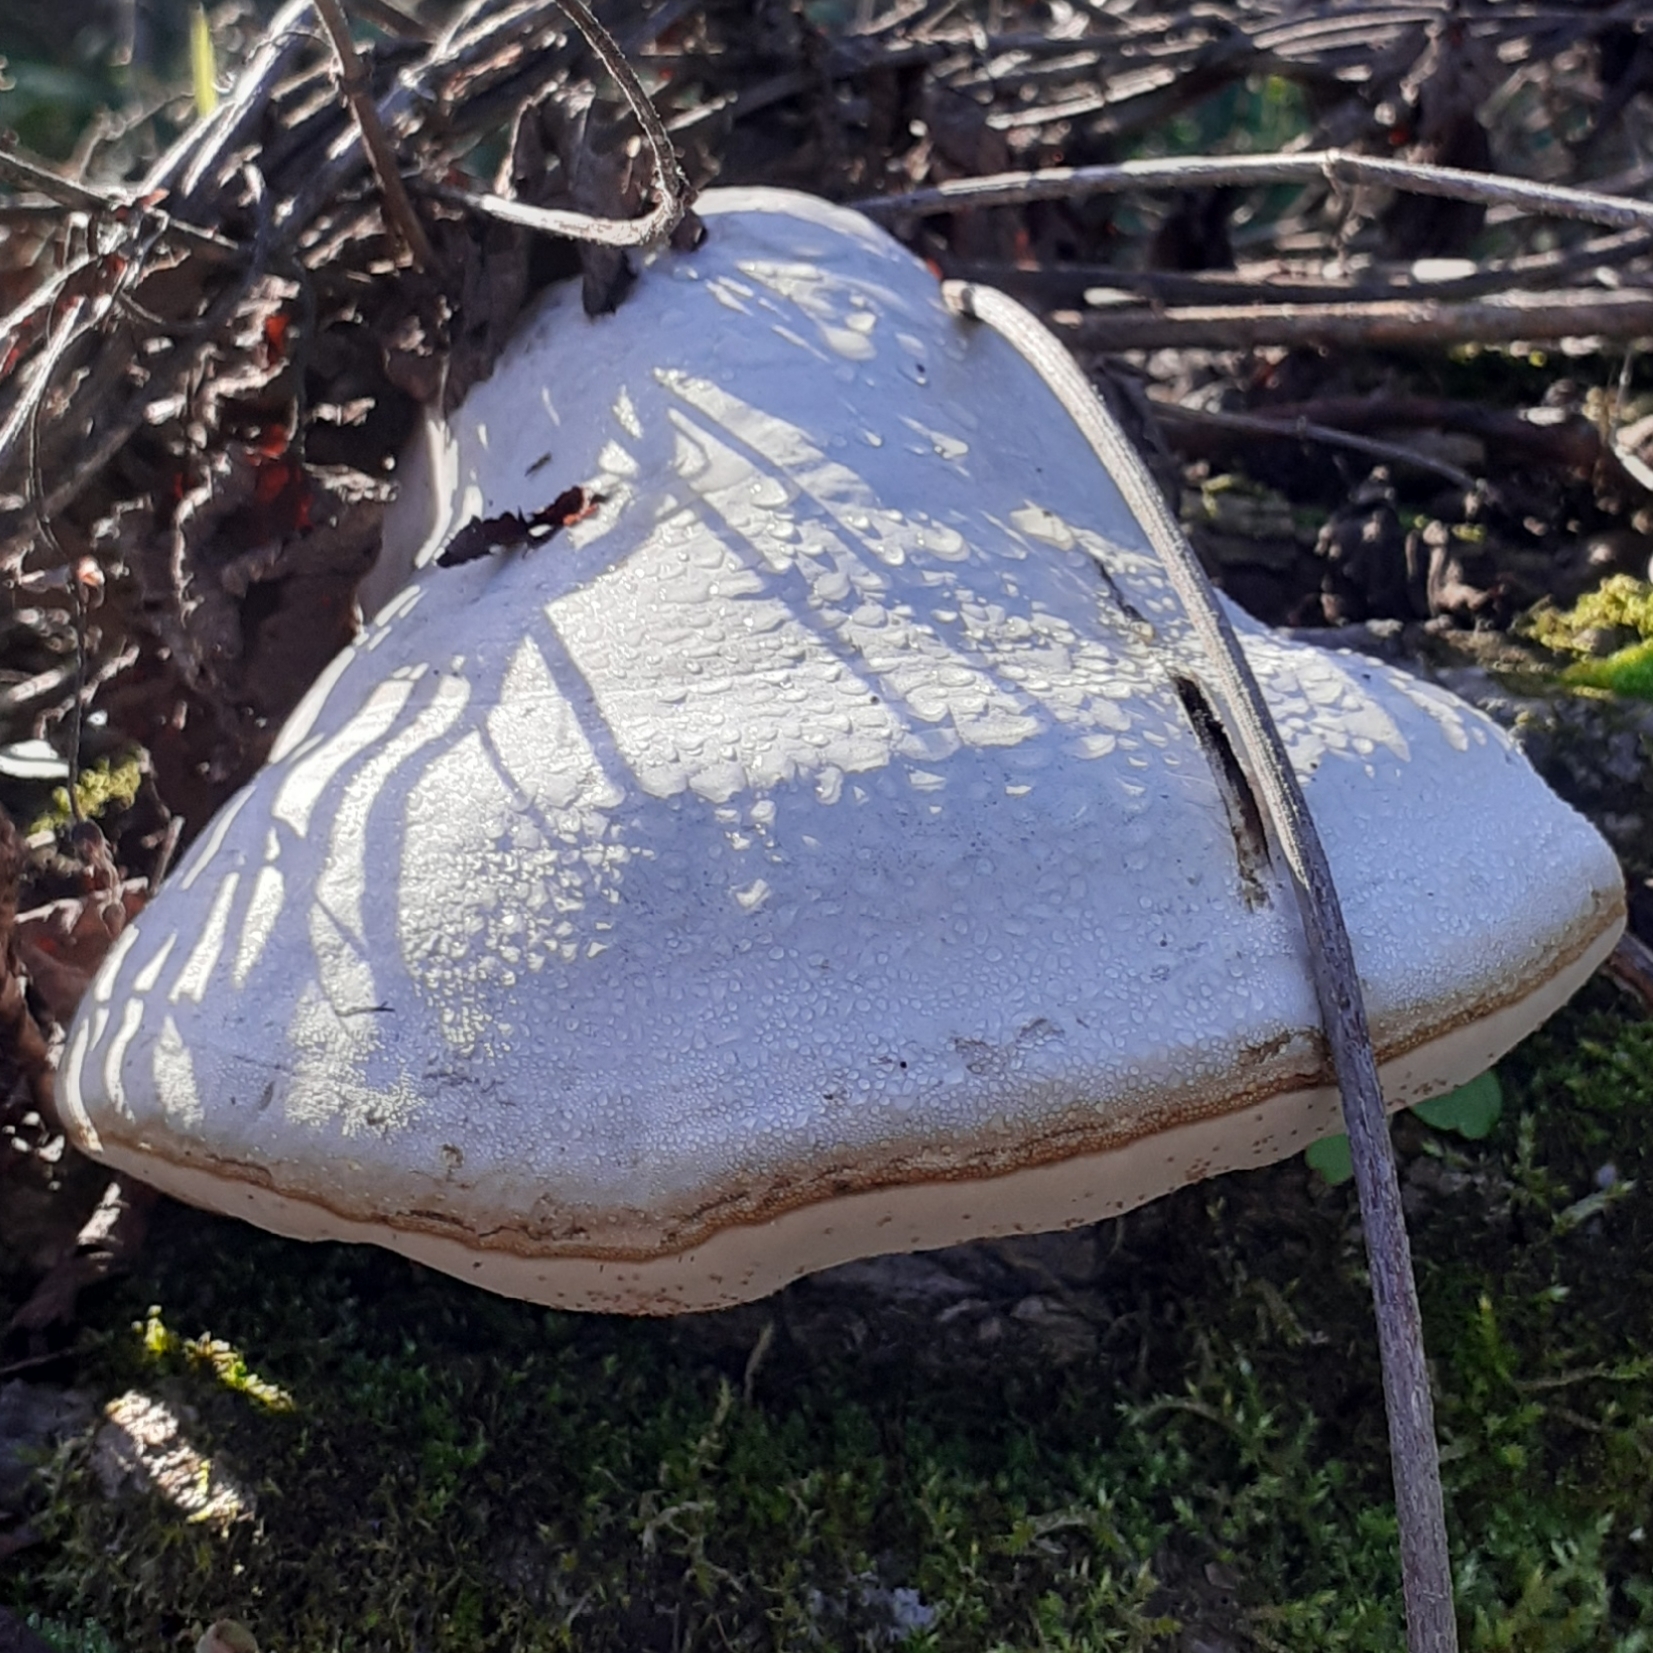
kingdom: Fungi
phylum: Basidiomycota
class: Agaricomycetes
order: Polyporales
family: Polyporaceae
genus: Fomes
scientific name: Fomes fomentarius
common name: Hoof fungus
